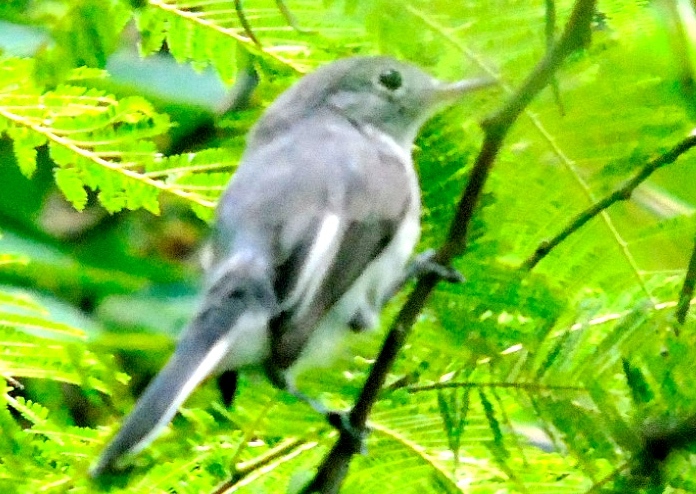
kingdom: Animalia
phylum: Chordata
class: Aves
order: Passeriformes
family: Polioptilidae
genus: Polioptila
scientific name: Polioptila caerulea
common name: Blue-gray gnatcatcher
